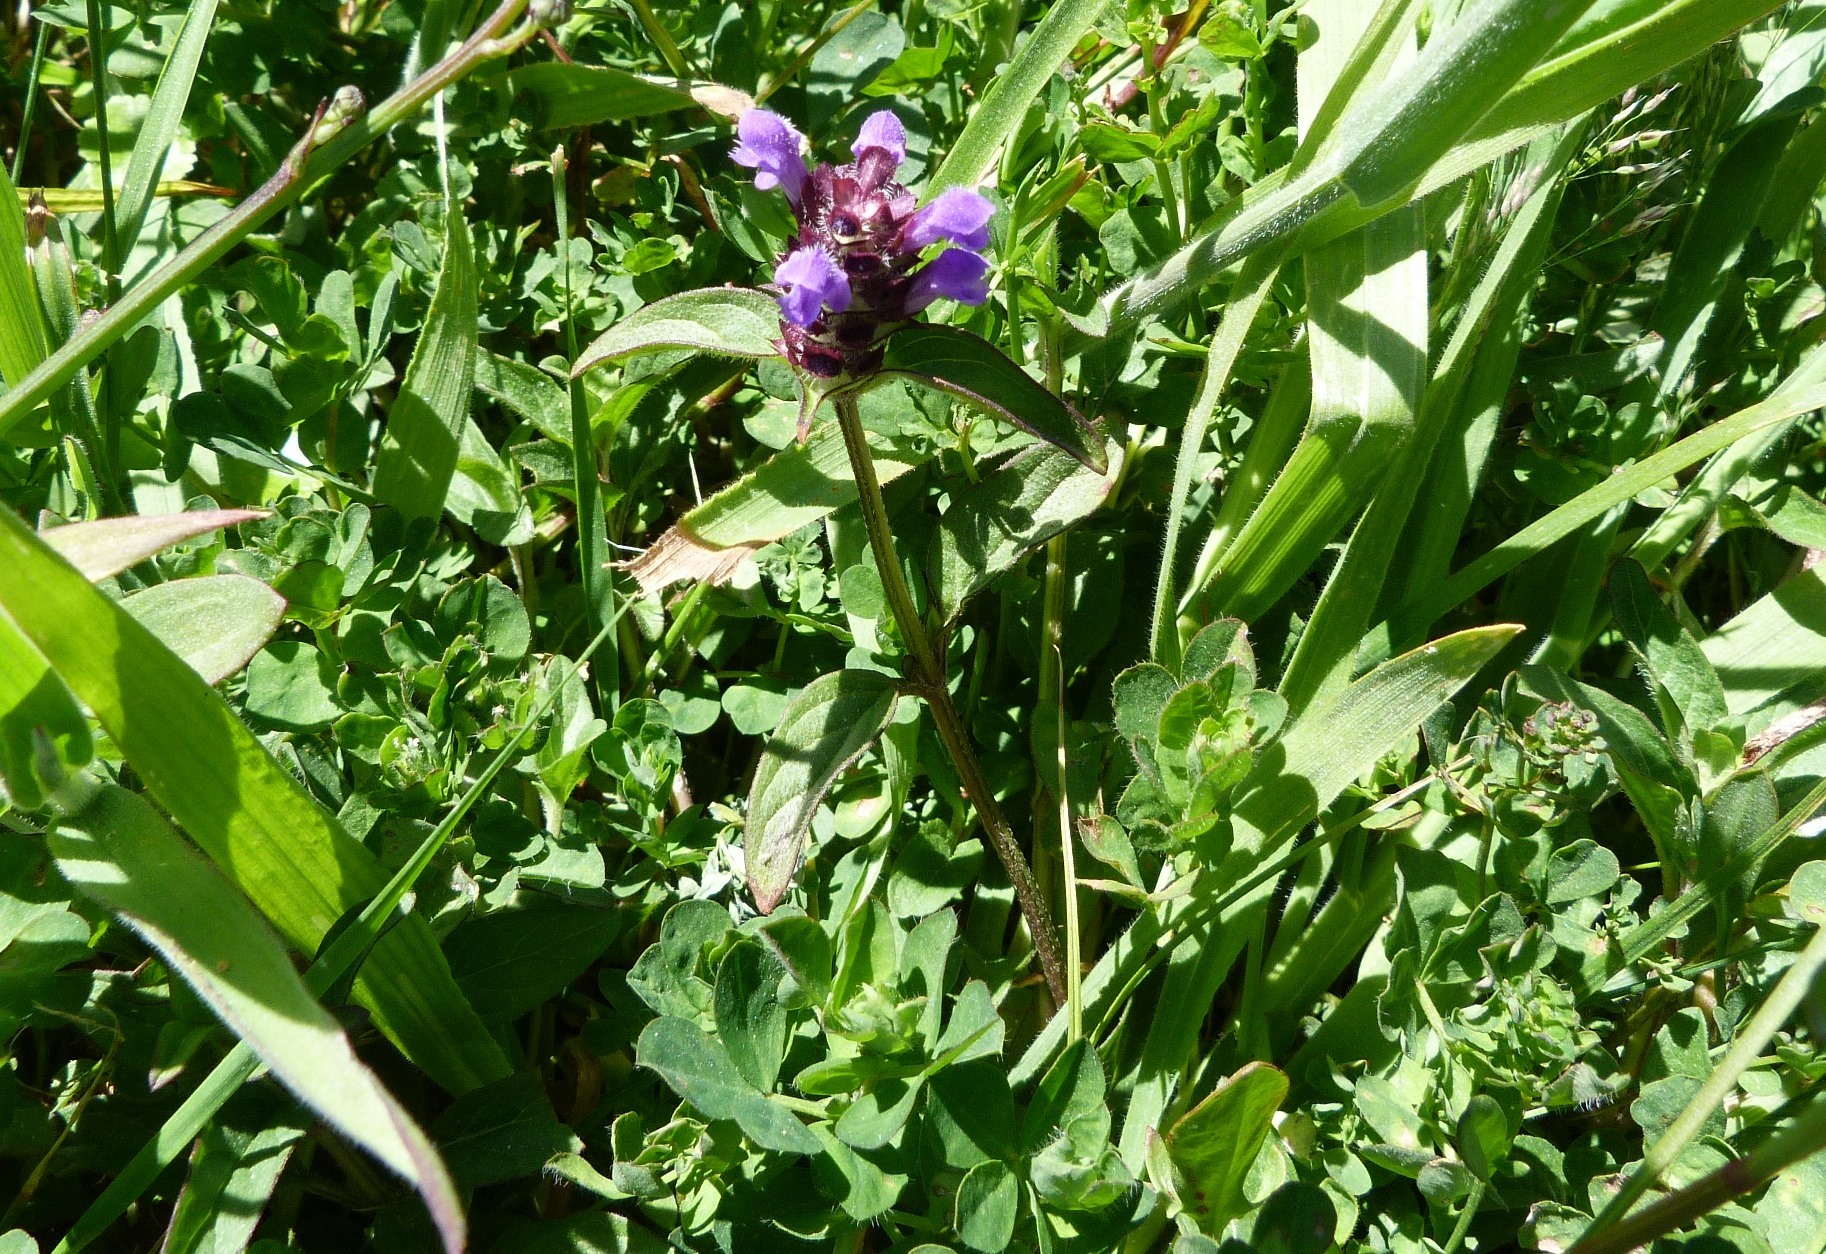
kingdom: Plantae
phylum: Tracheophyta
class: Magnoliopsida
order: Lamiales
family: Lamiaceae
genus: Prunella
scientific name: Prunella vulgaris
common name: Heal-all
